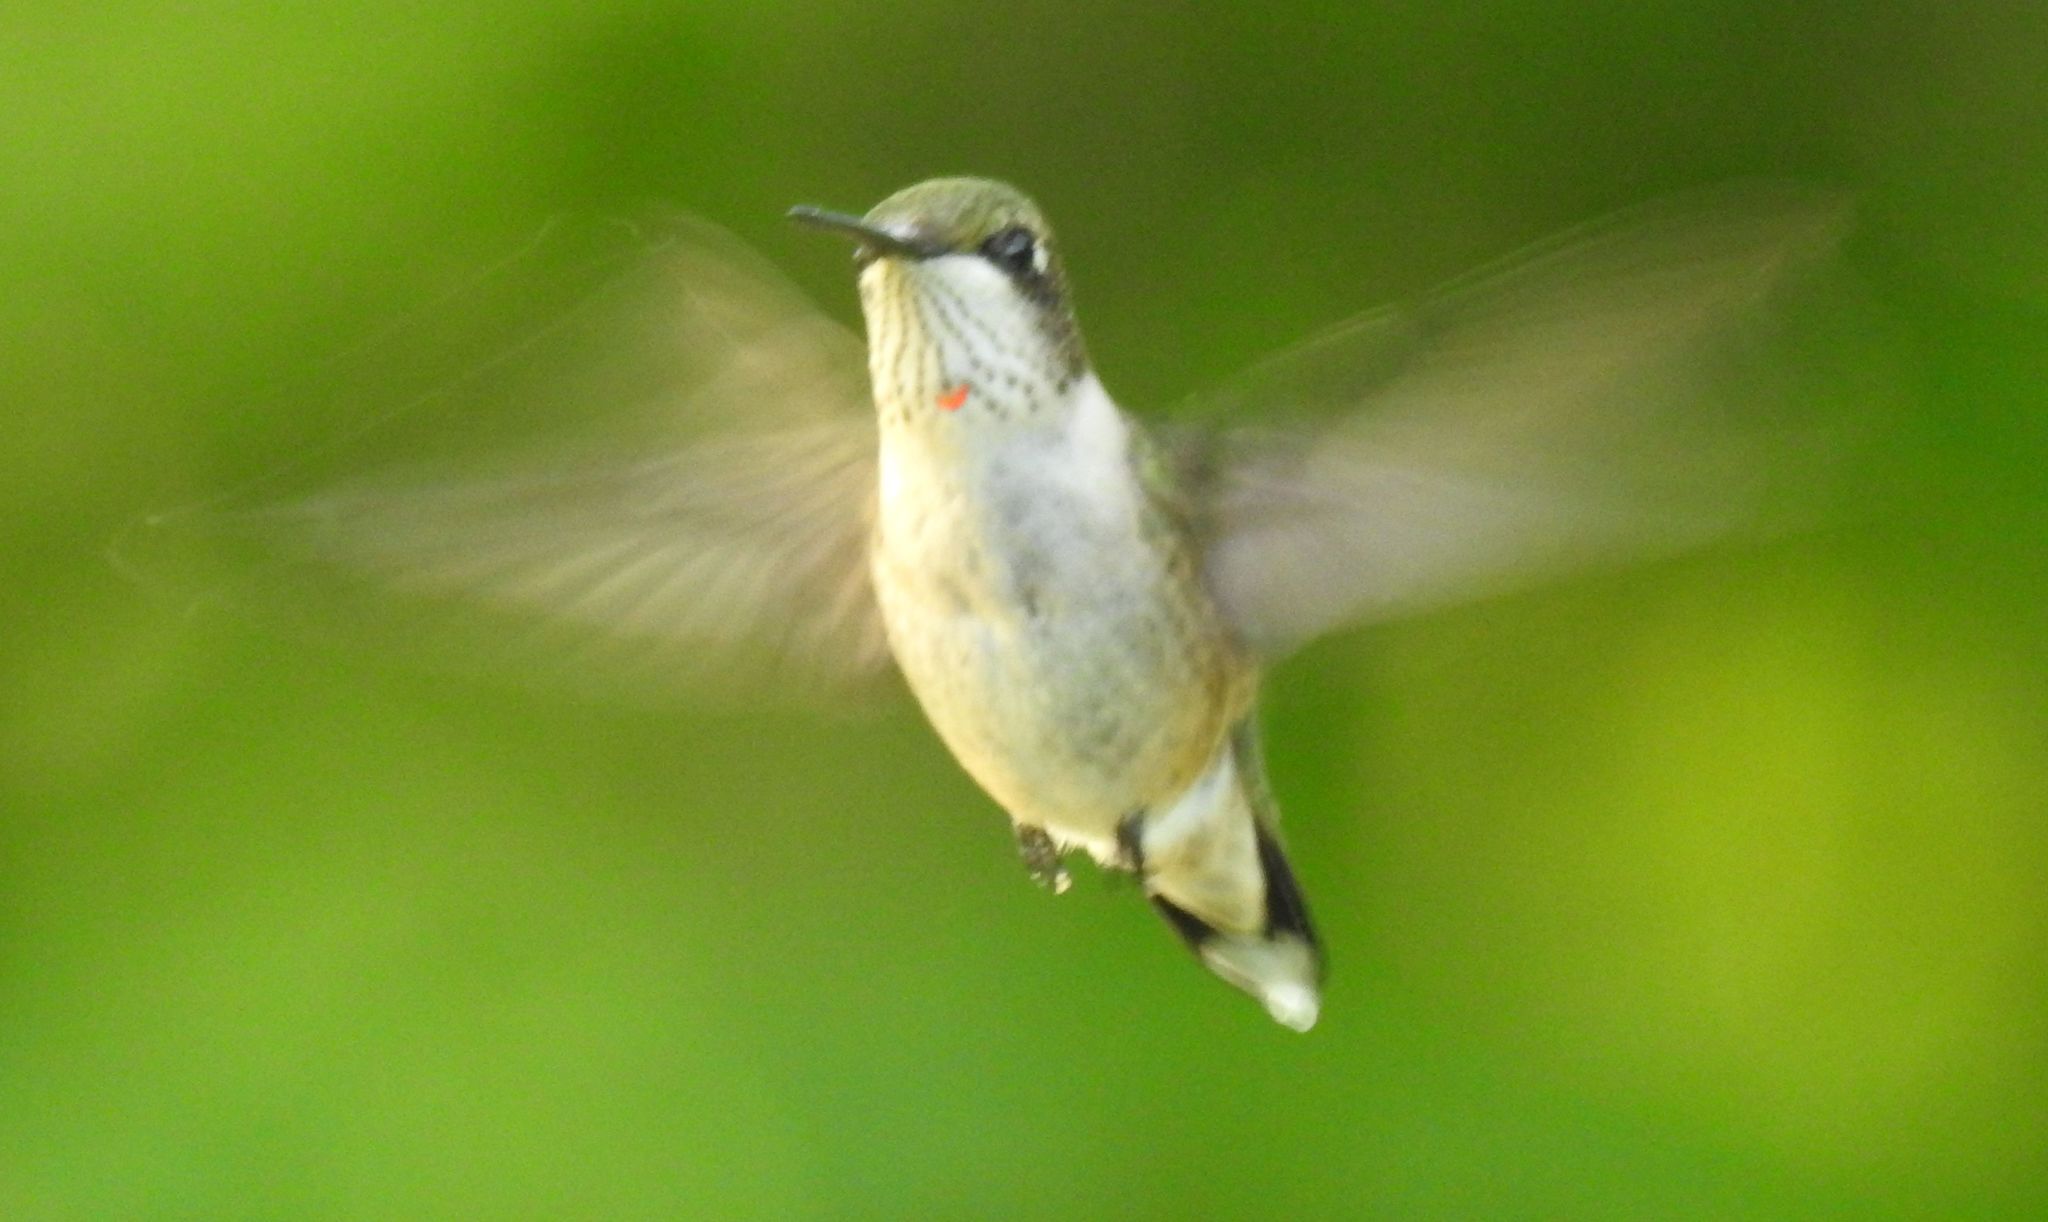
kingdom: Animalia
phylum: Chordata
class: Aves
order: Apodiformes
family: Trochilidae
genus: Archilochus
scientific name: Archilochus colubris
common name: Ruby-throated hummingbird
